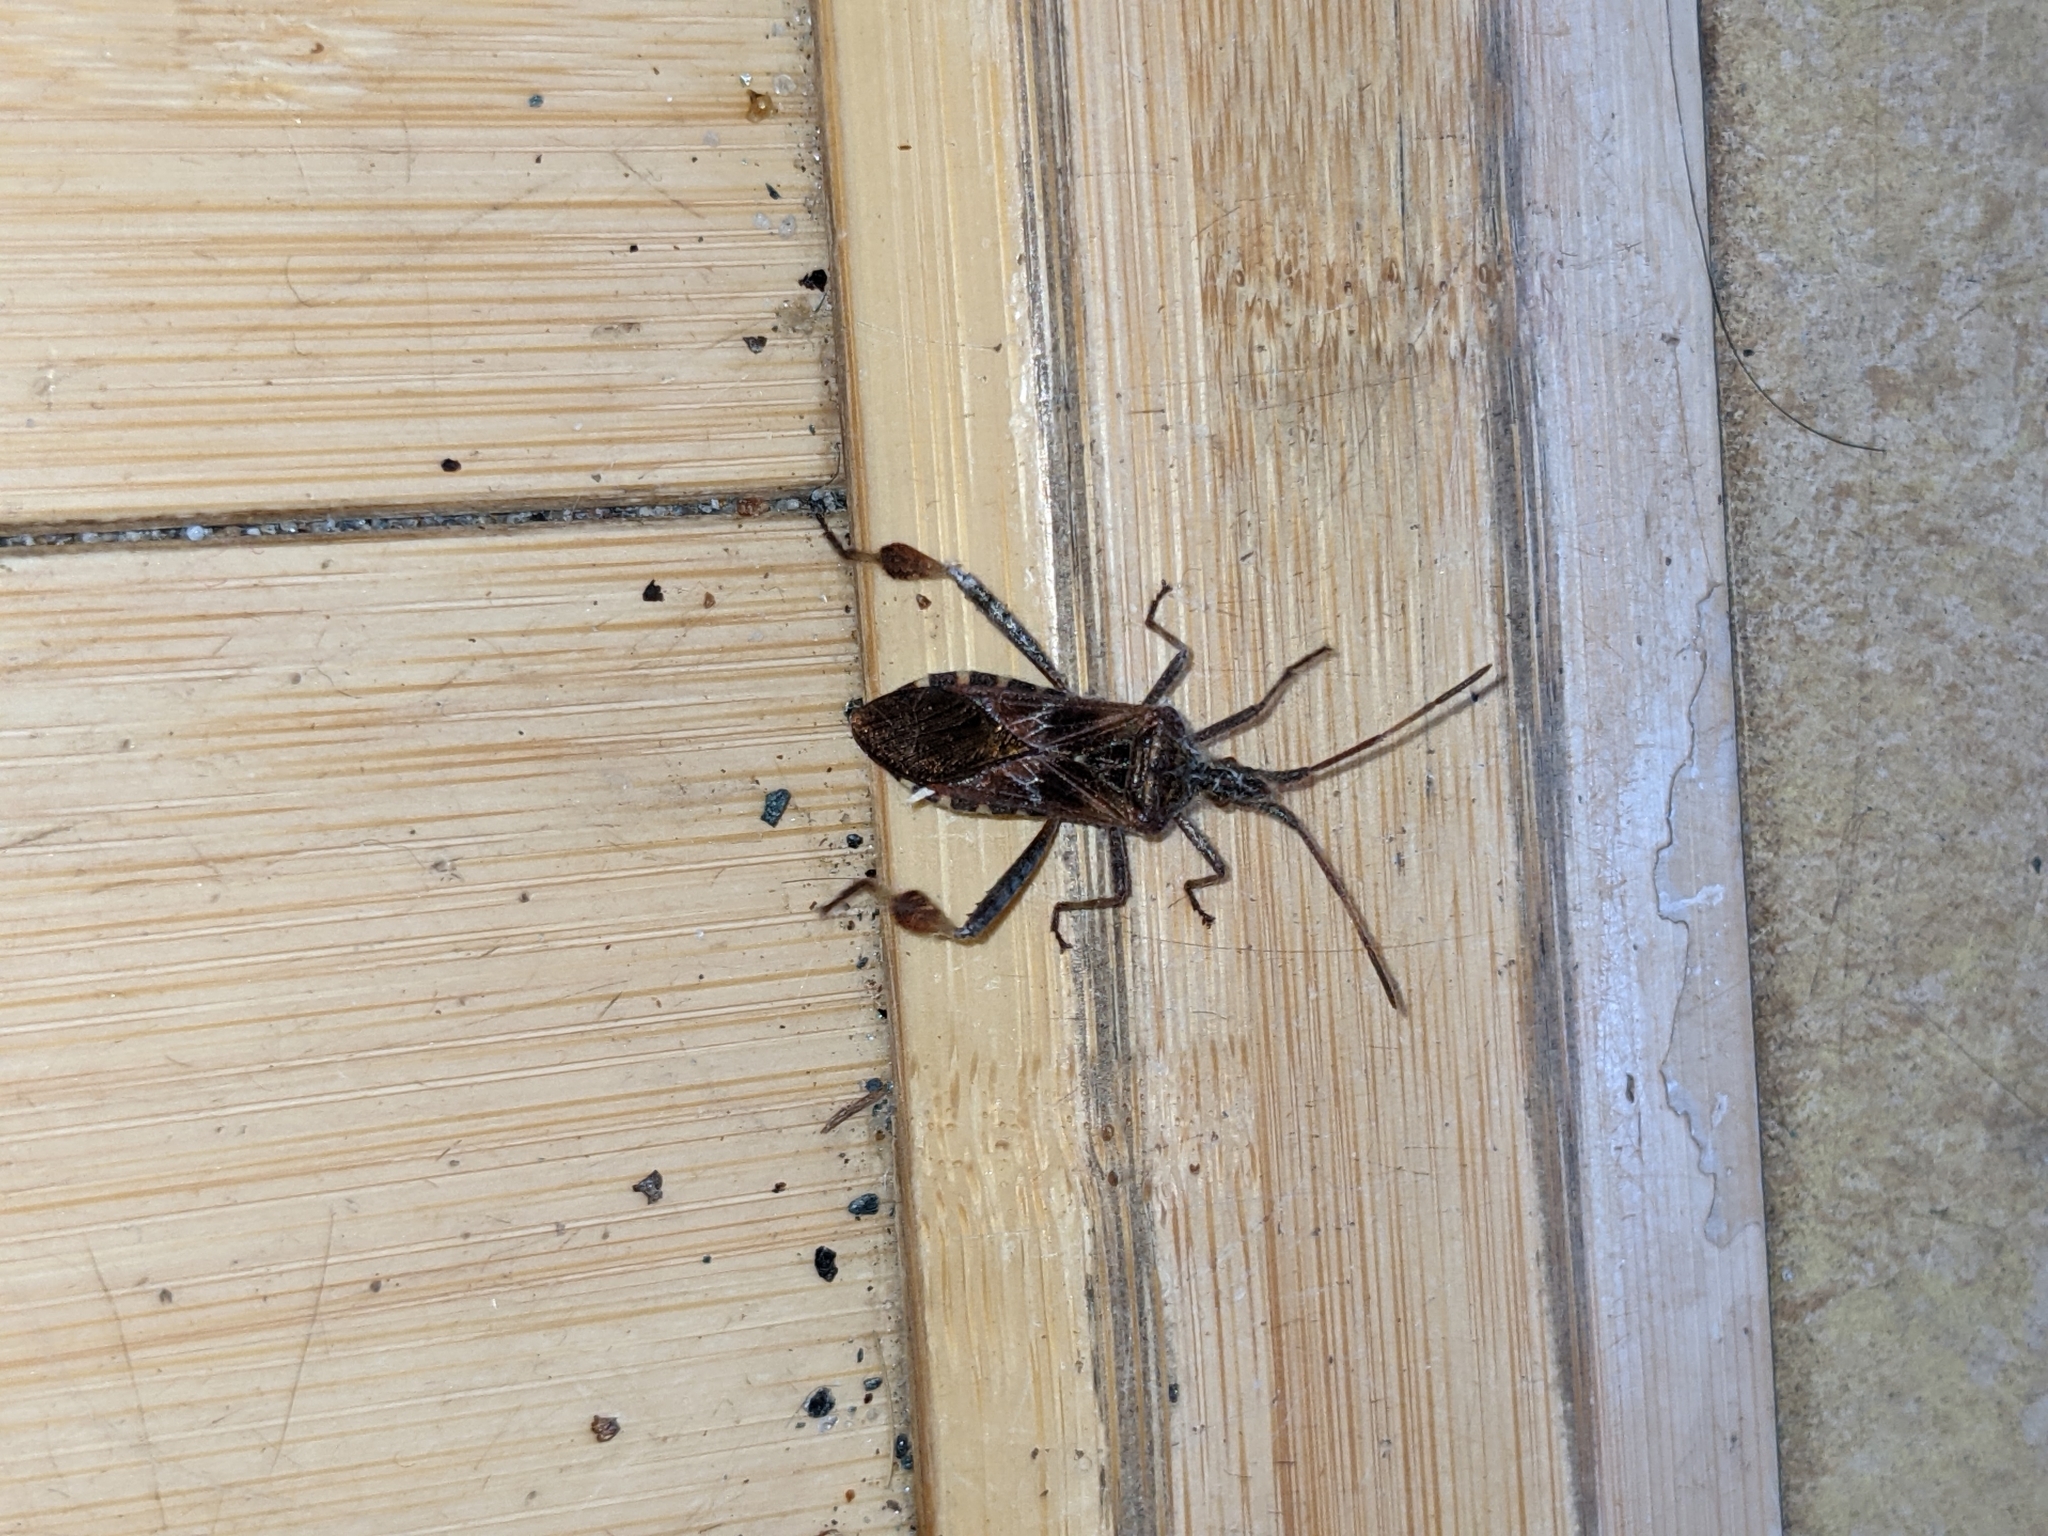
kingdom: Animalia
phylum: Arthropoda
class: Insecta
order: Hemiptera
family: Coreidae
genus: Leptoglossus
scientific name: Leptoglossus occidentalis
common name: Western conifer-seed bug
